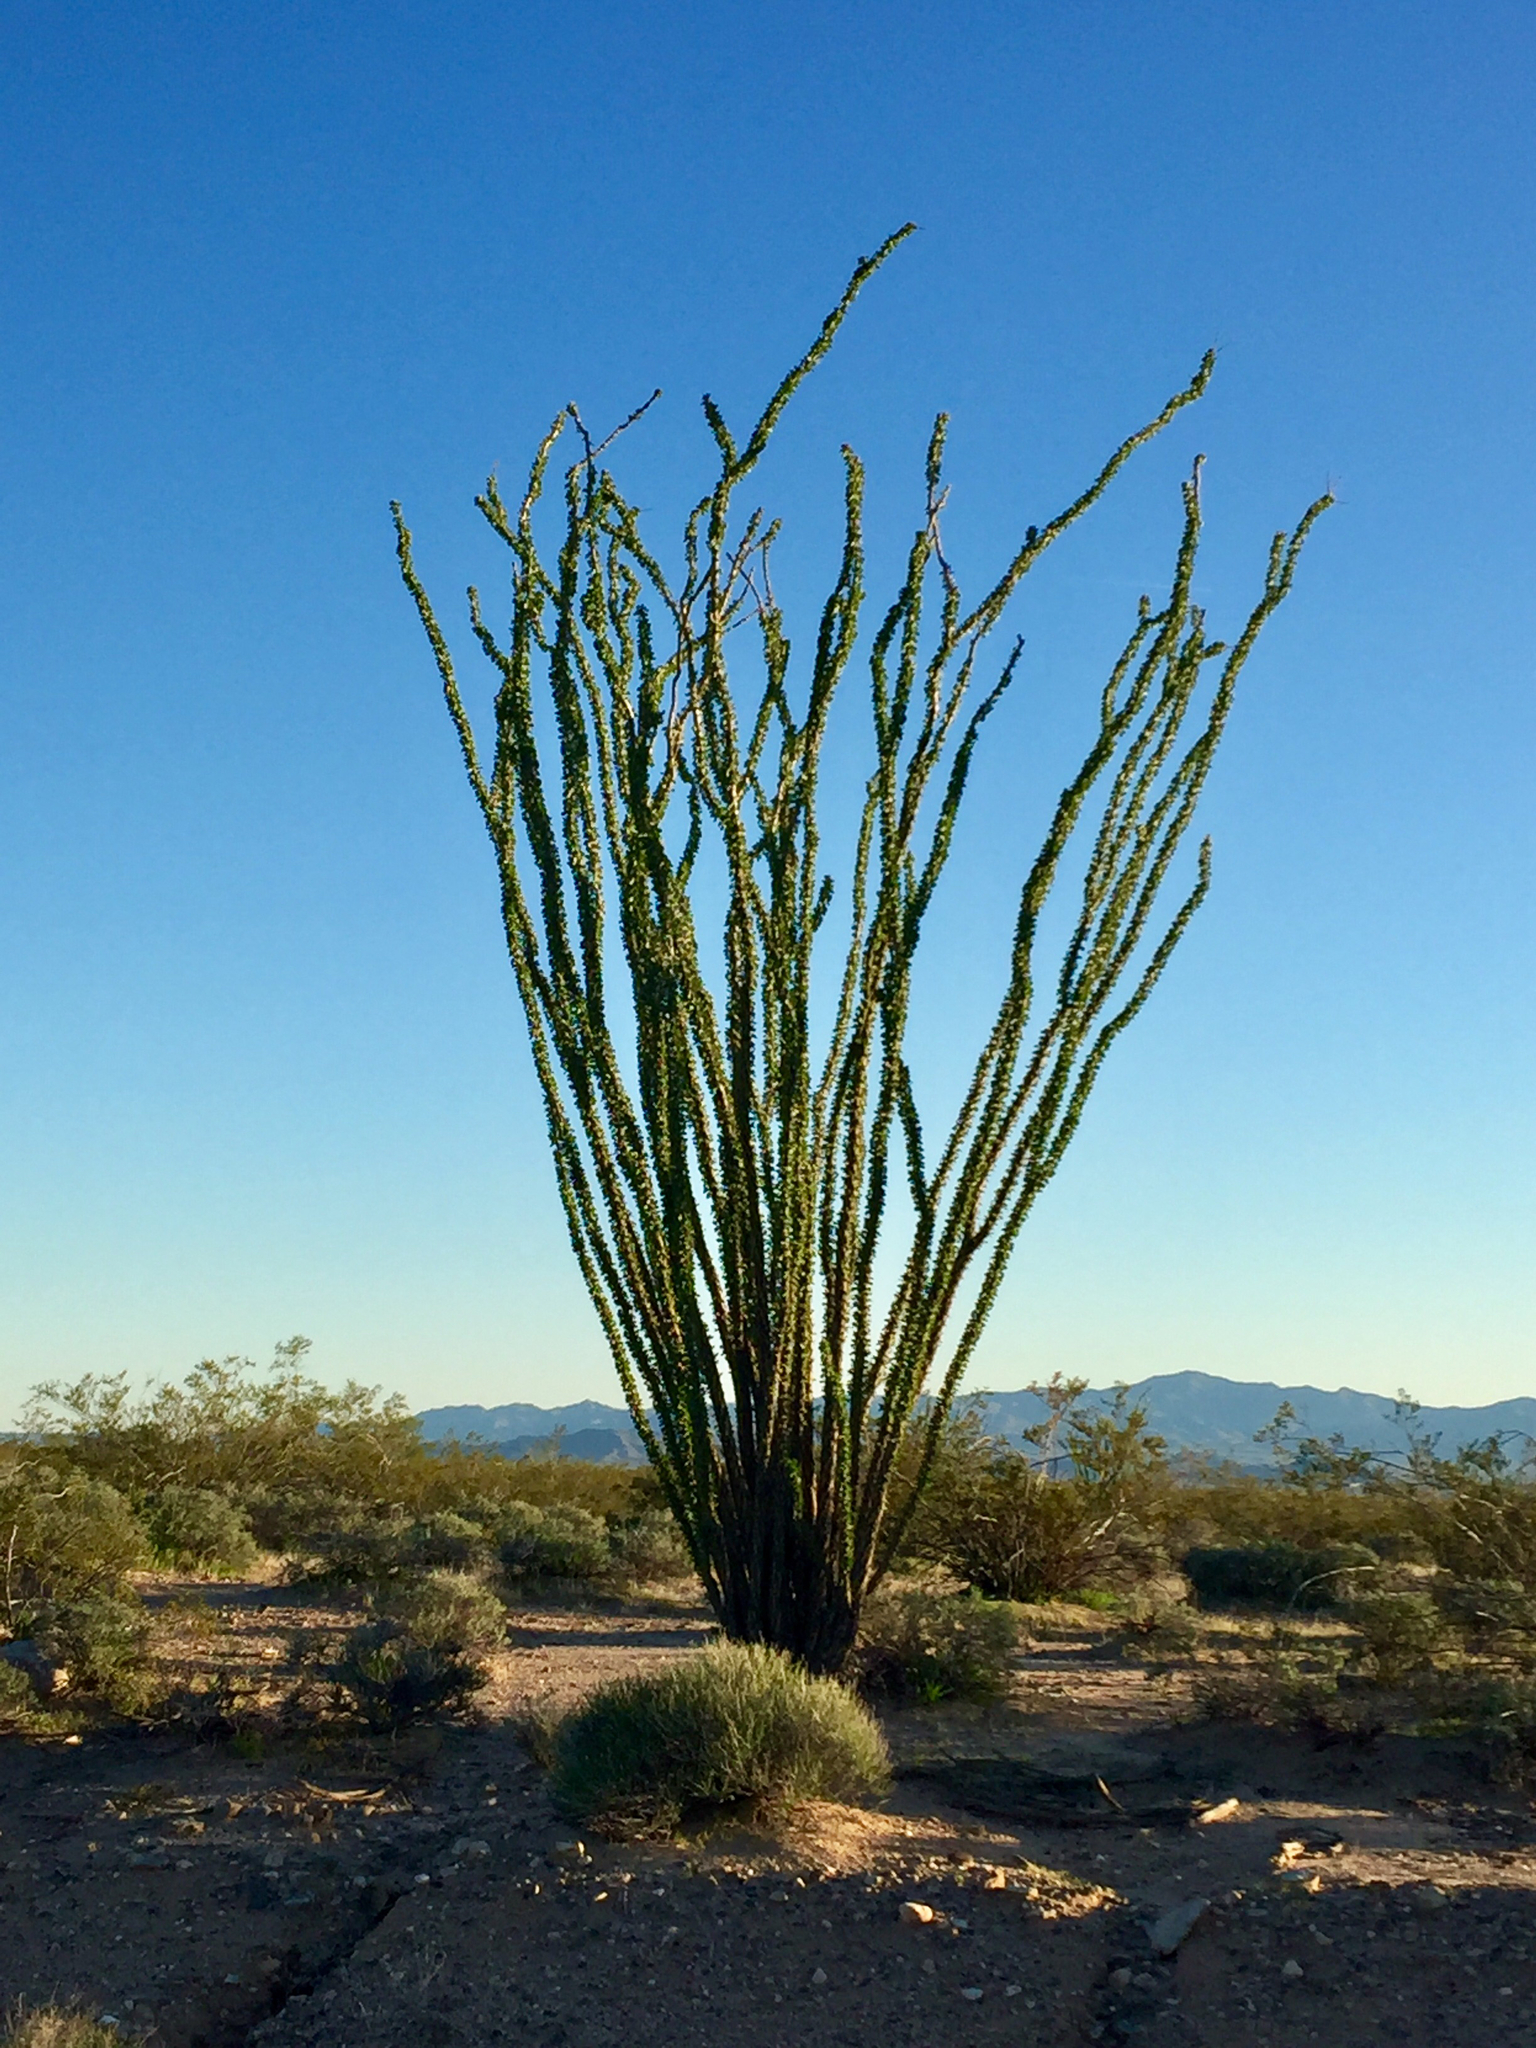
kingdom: Plantae
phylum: Tracheophyta
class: Magnoliopsida
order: Ericales
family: Fouquieriaceae
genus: Fouquieria
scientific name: Fouquieria splendens
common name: Vine-cactus
